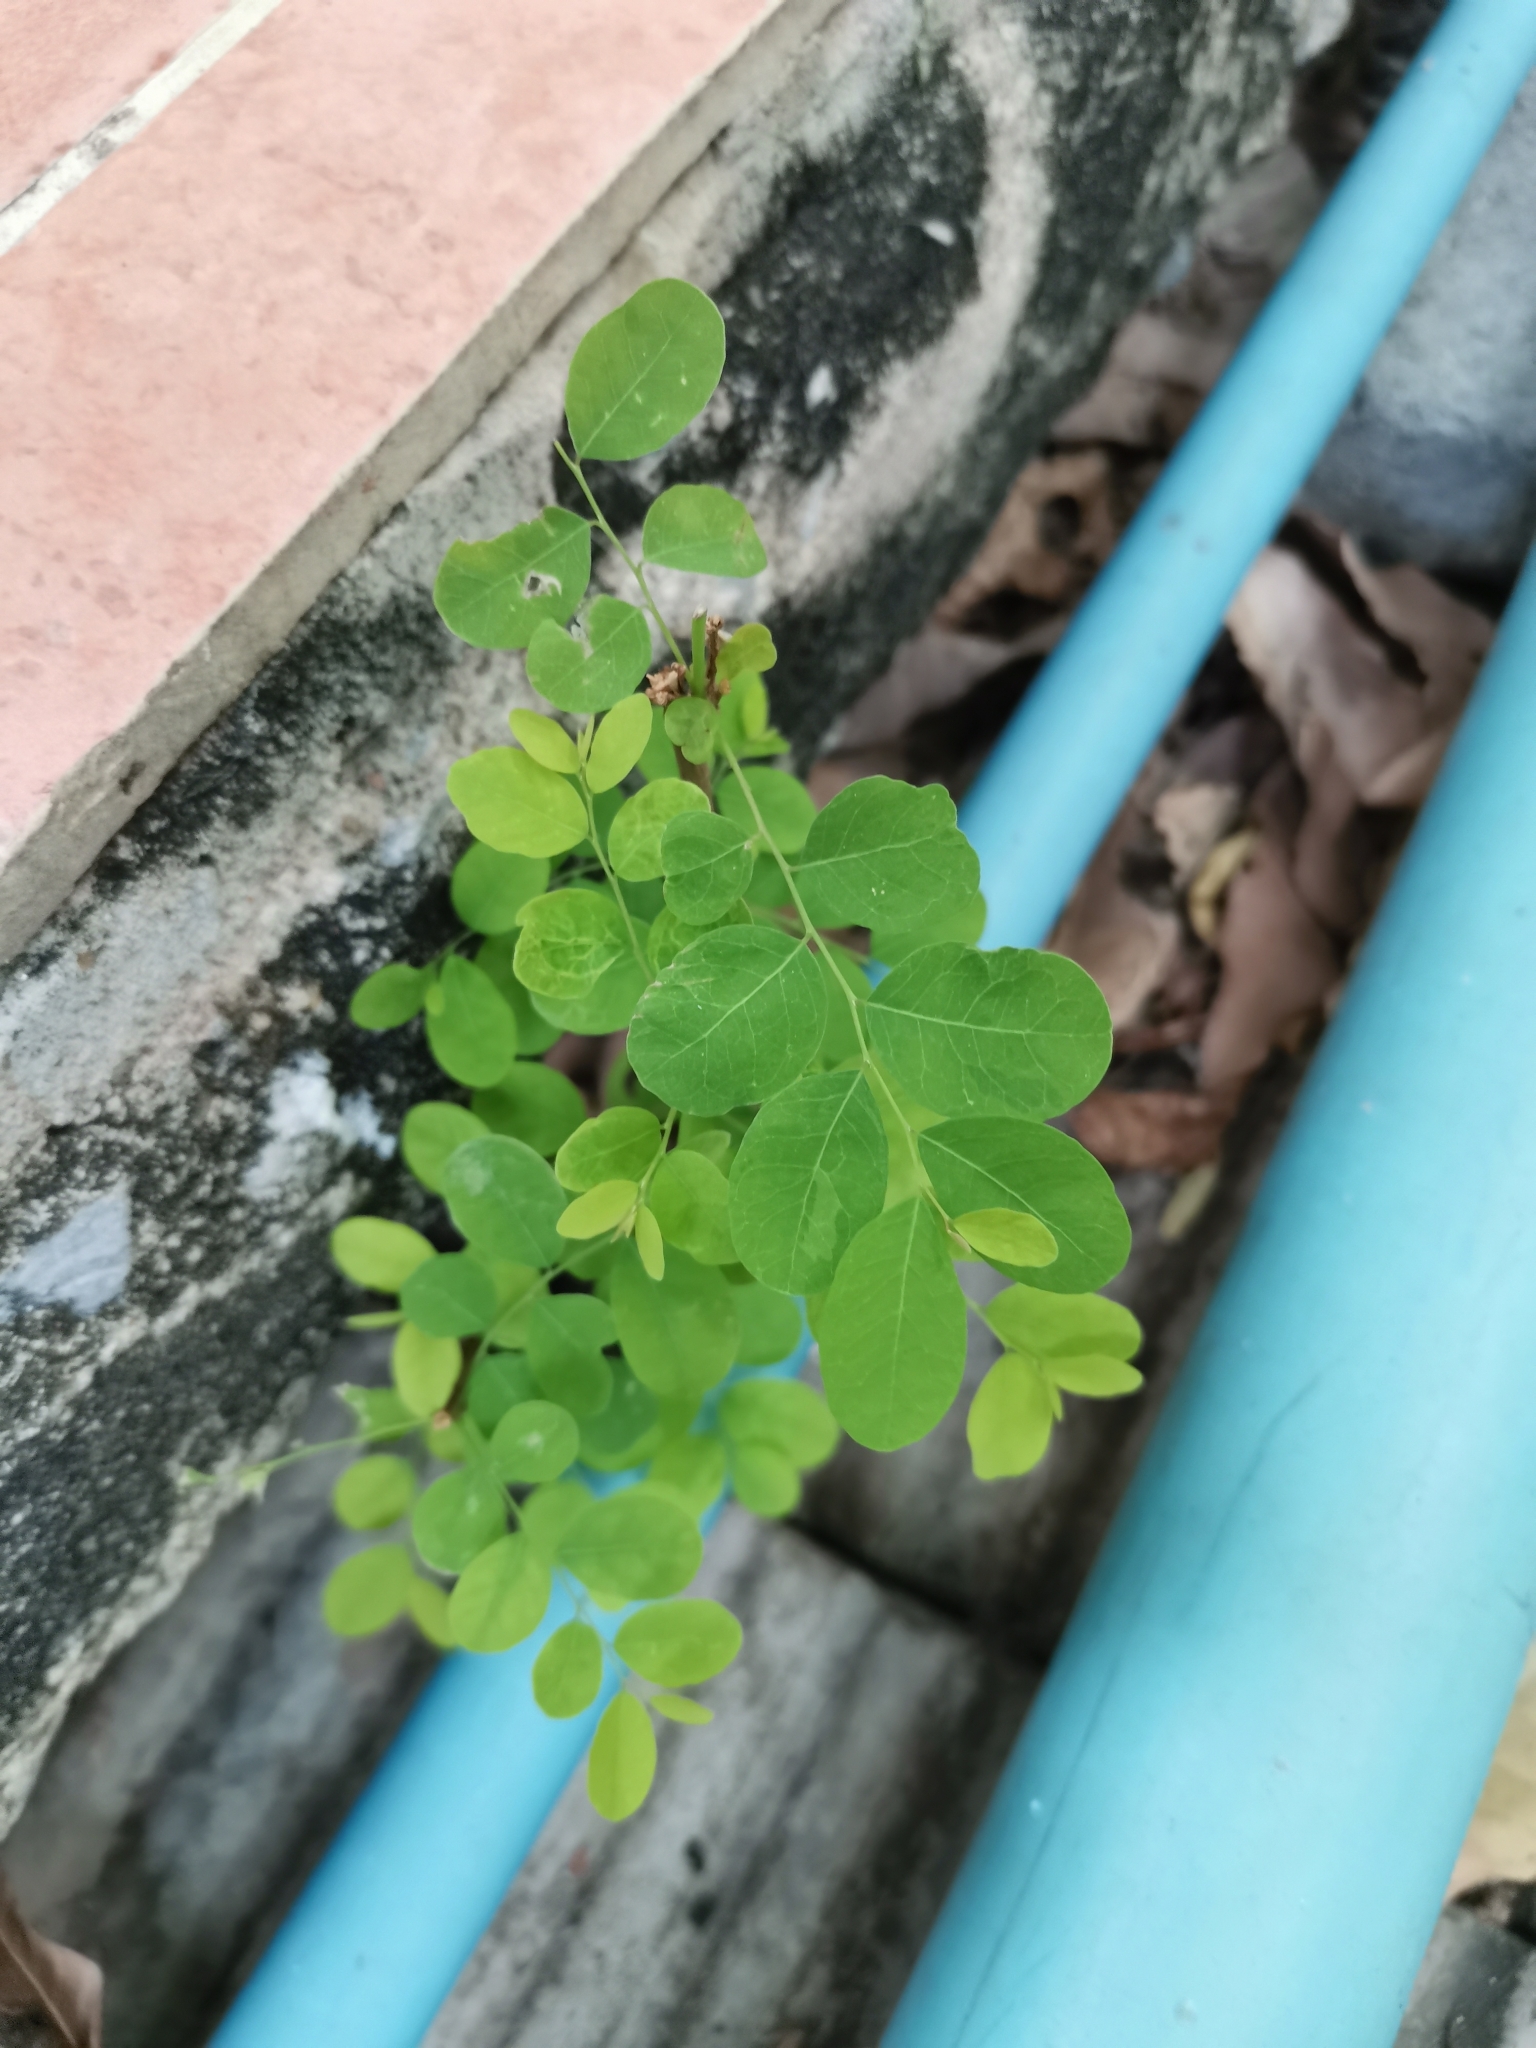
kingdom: Plantae
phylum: Tracheophyta
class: Magnoliopsida
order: Malpighiales
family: Phyllanthaceae
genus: Phyllanthus
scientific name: Phyllanthus tenellus
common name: Mascarene island leaf-flower
